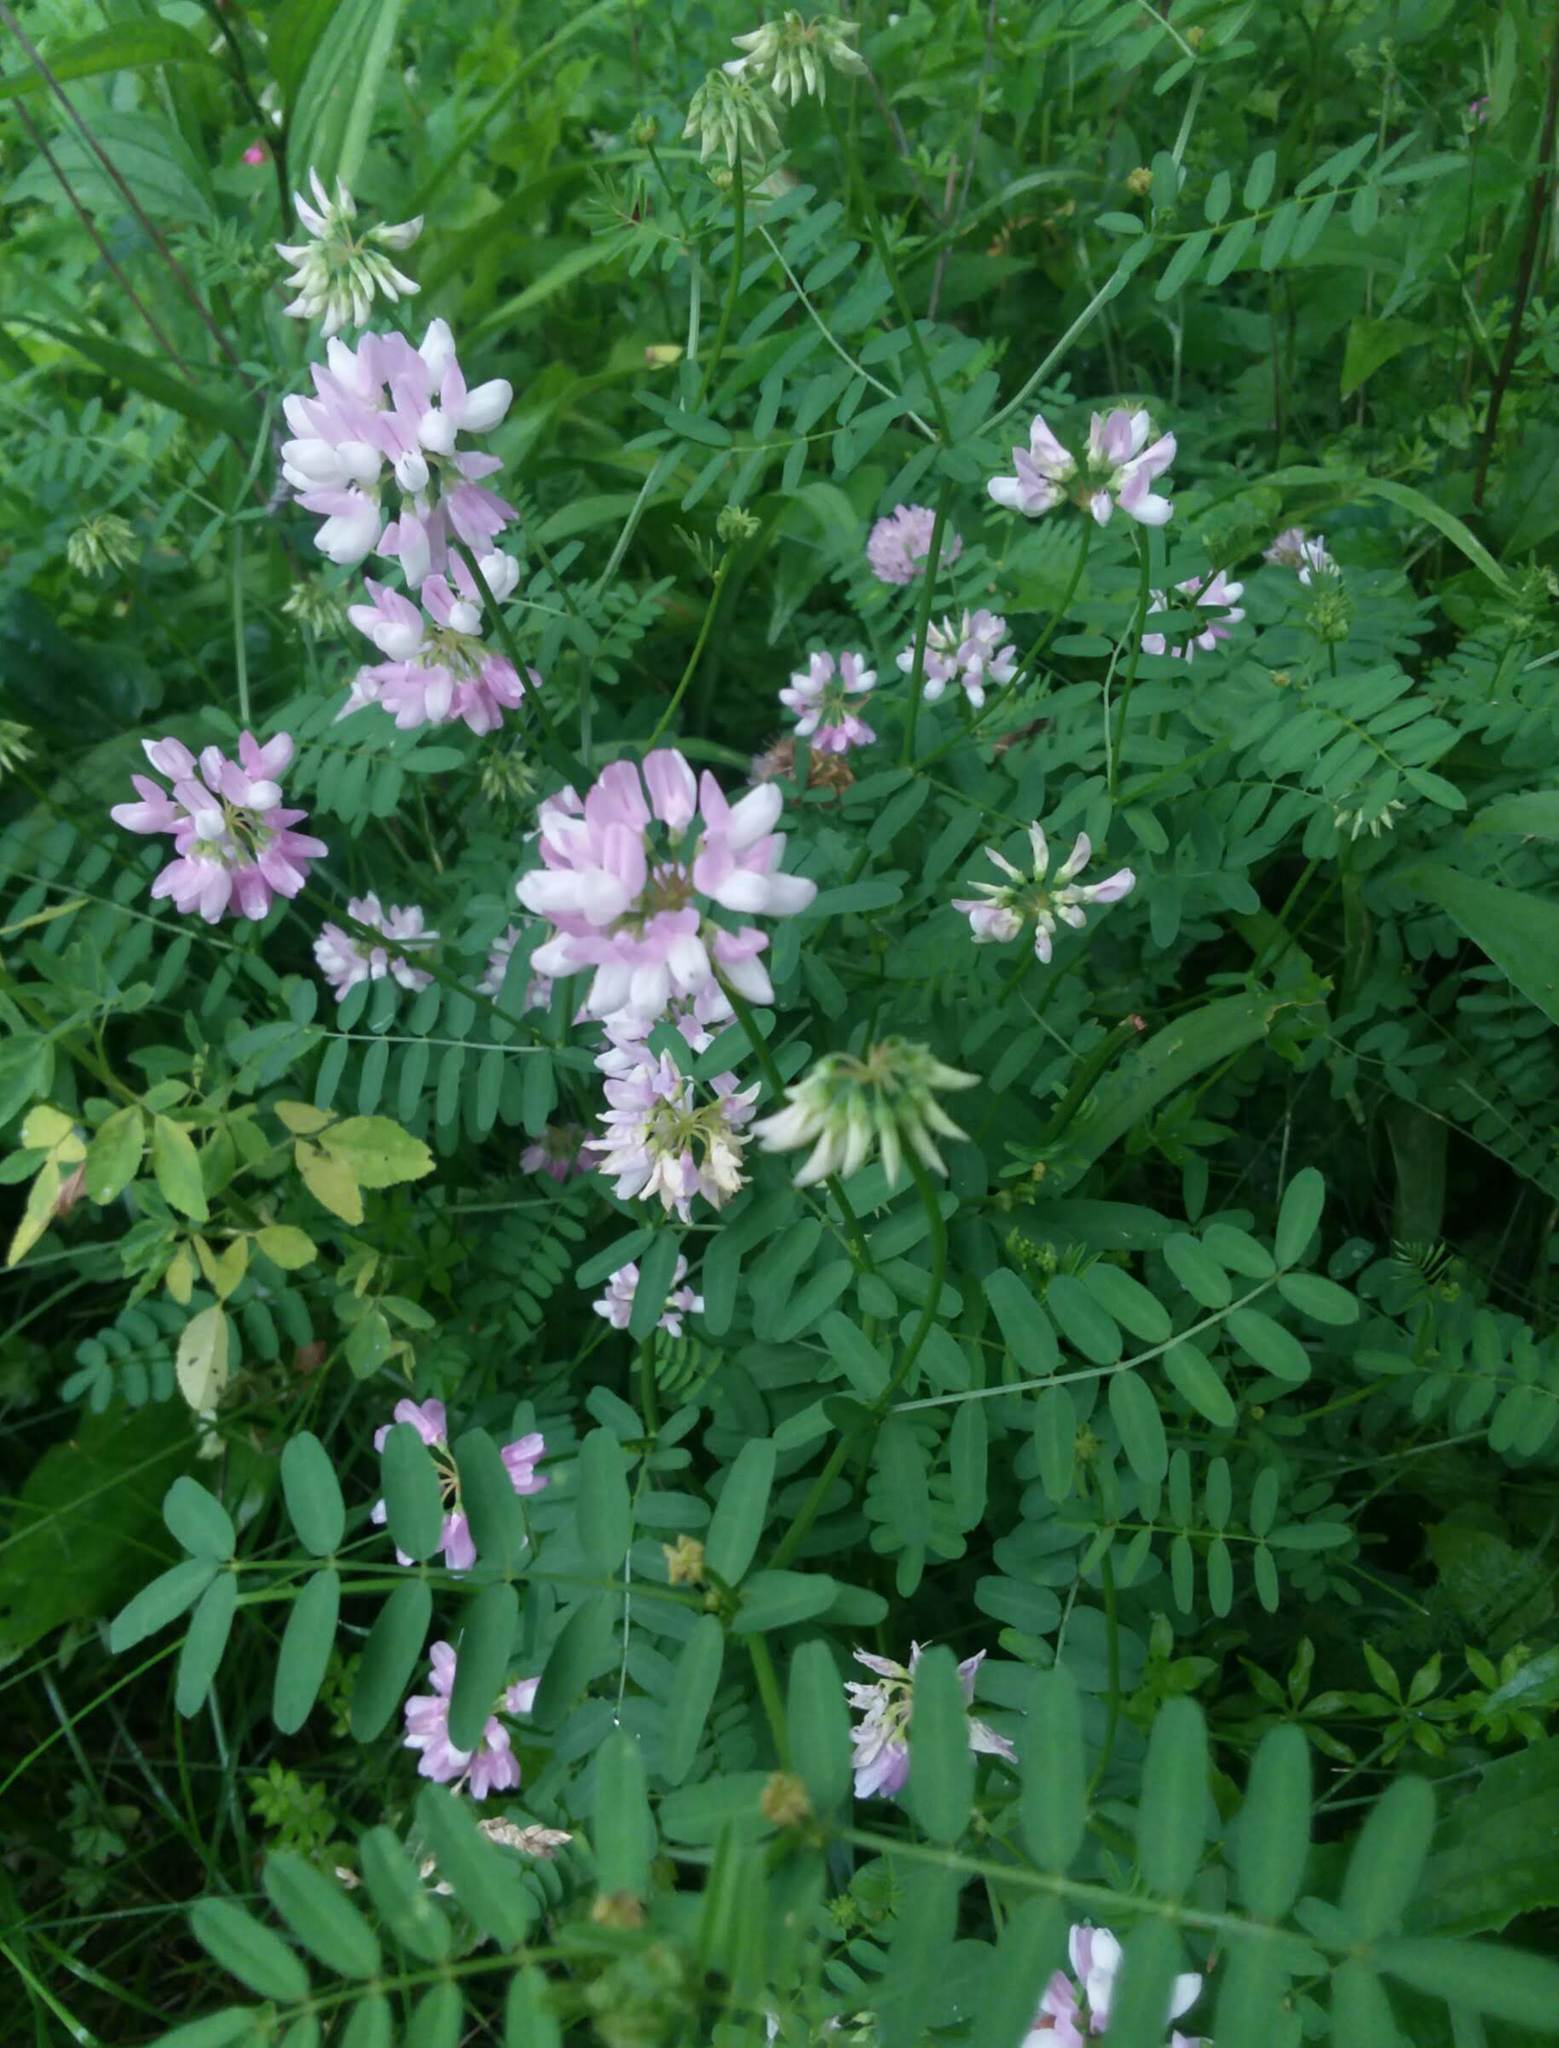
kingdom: Plantae
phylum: Tracheophyta
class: Magnoliopsida
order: Fabales
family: Fabaceae
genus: Coronilla
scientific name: Coronilla varia
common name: Crownvetch
